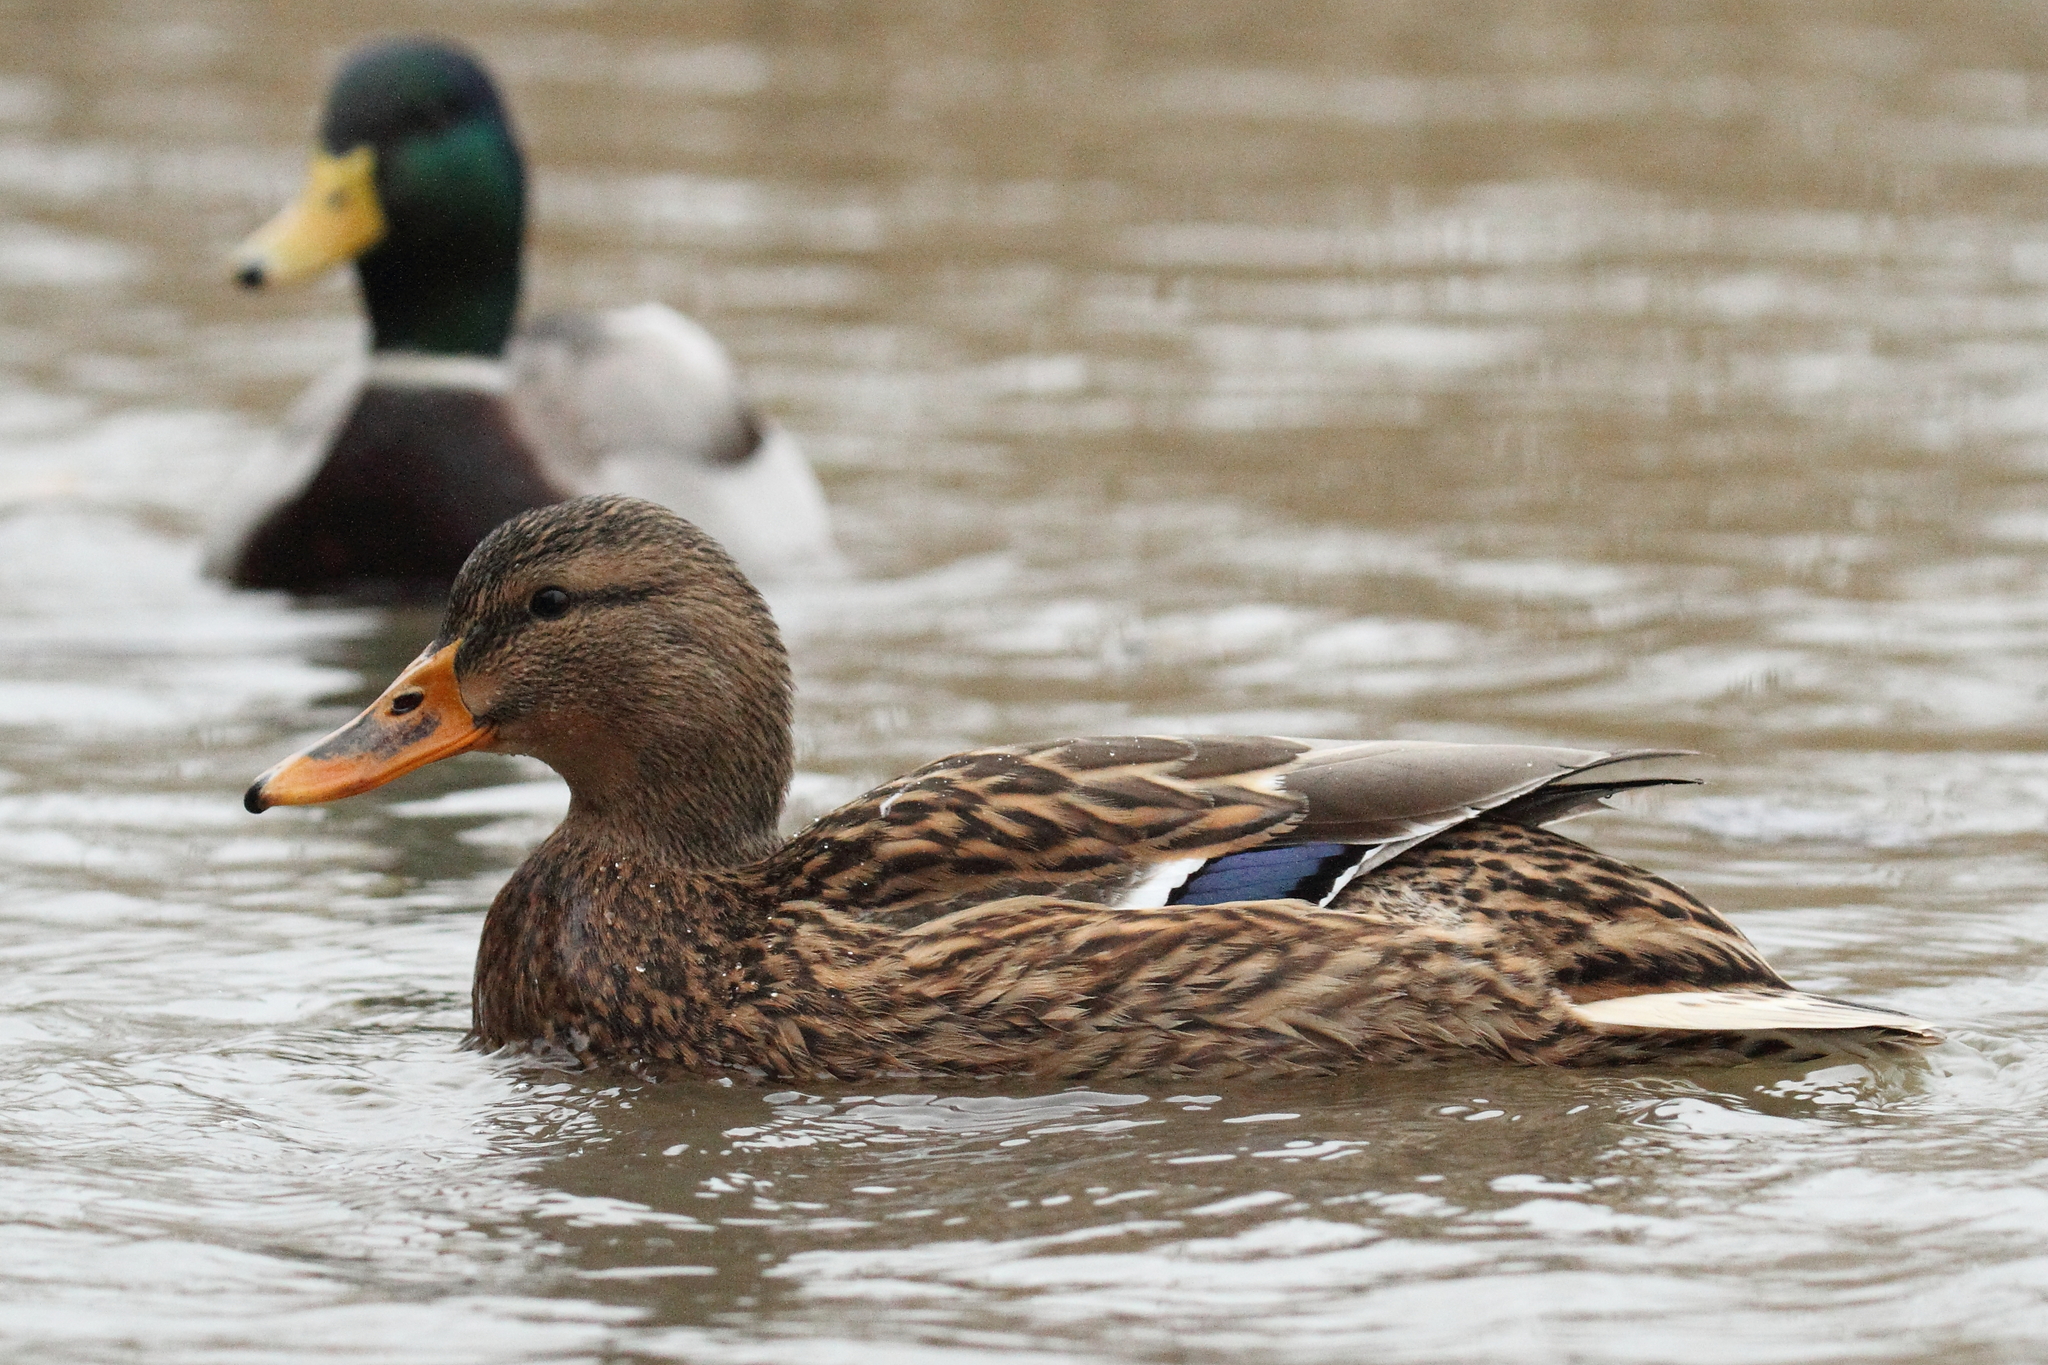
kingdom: Animalia
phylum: Chordata
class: Aves
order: Anseriformes
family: Anatidae
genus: Anas
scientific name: Anas platyrhynchos
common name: Mallard
